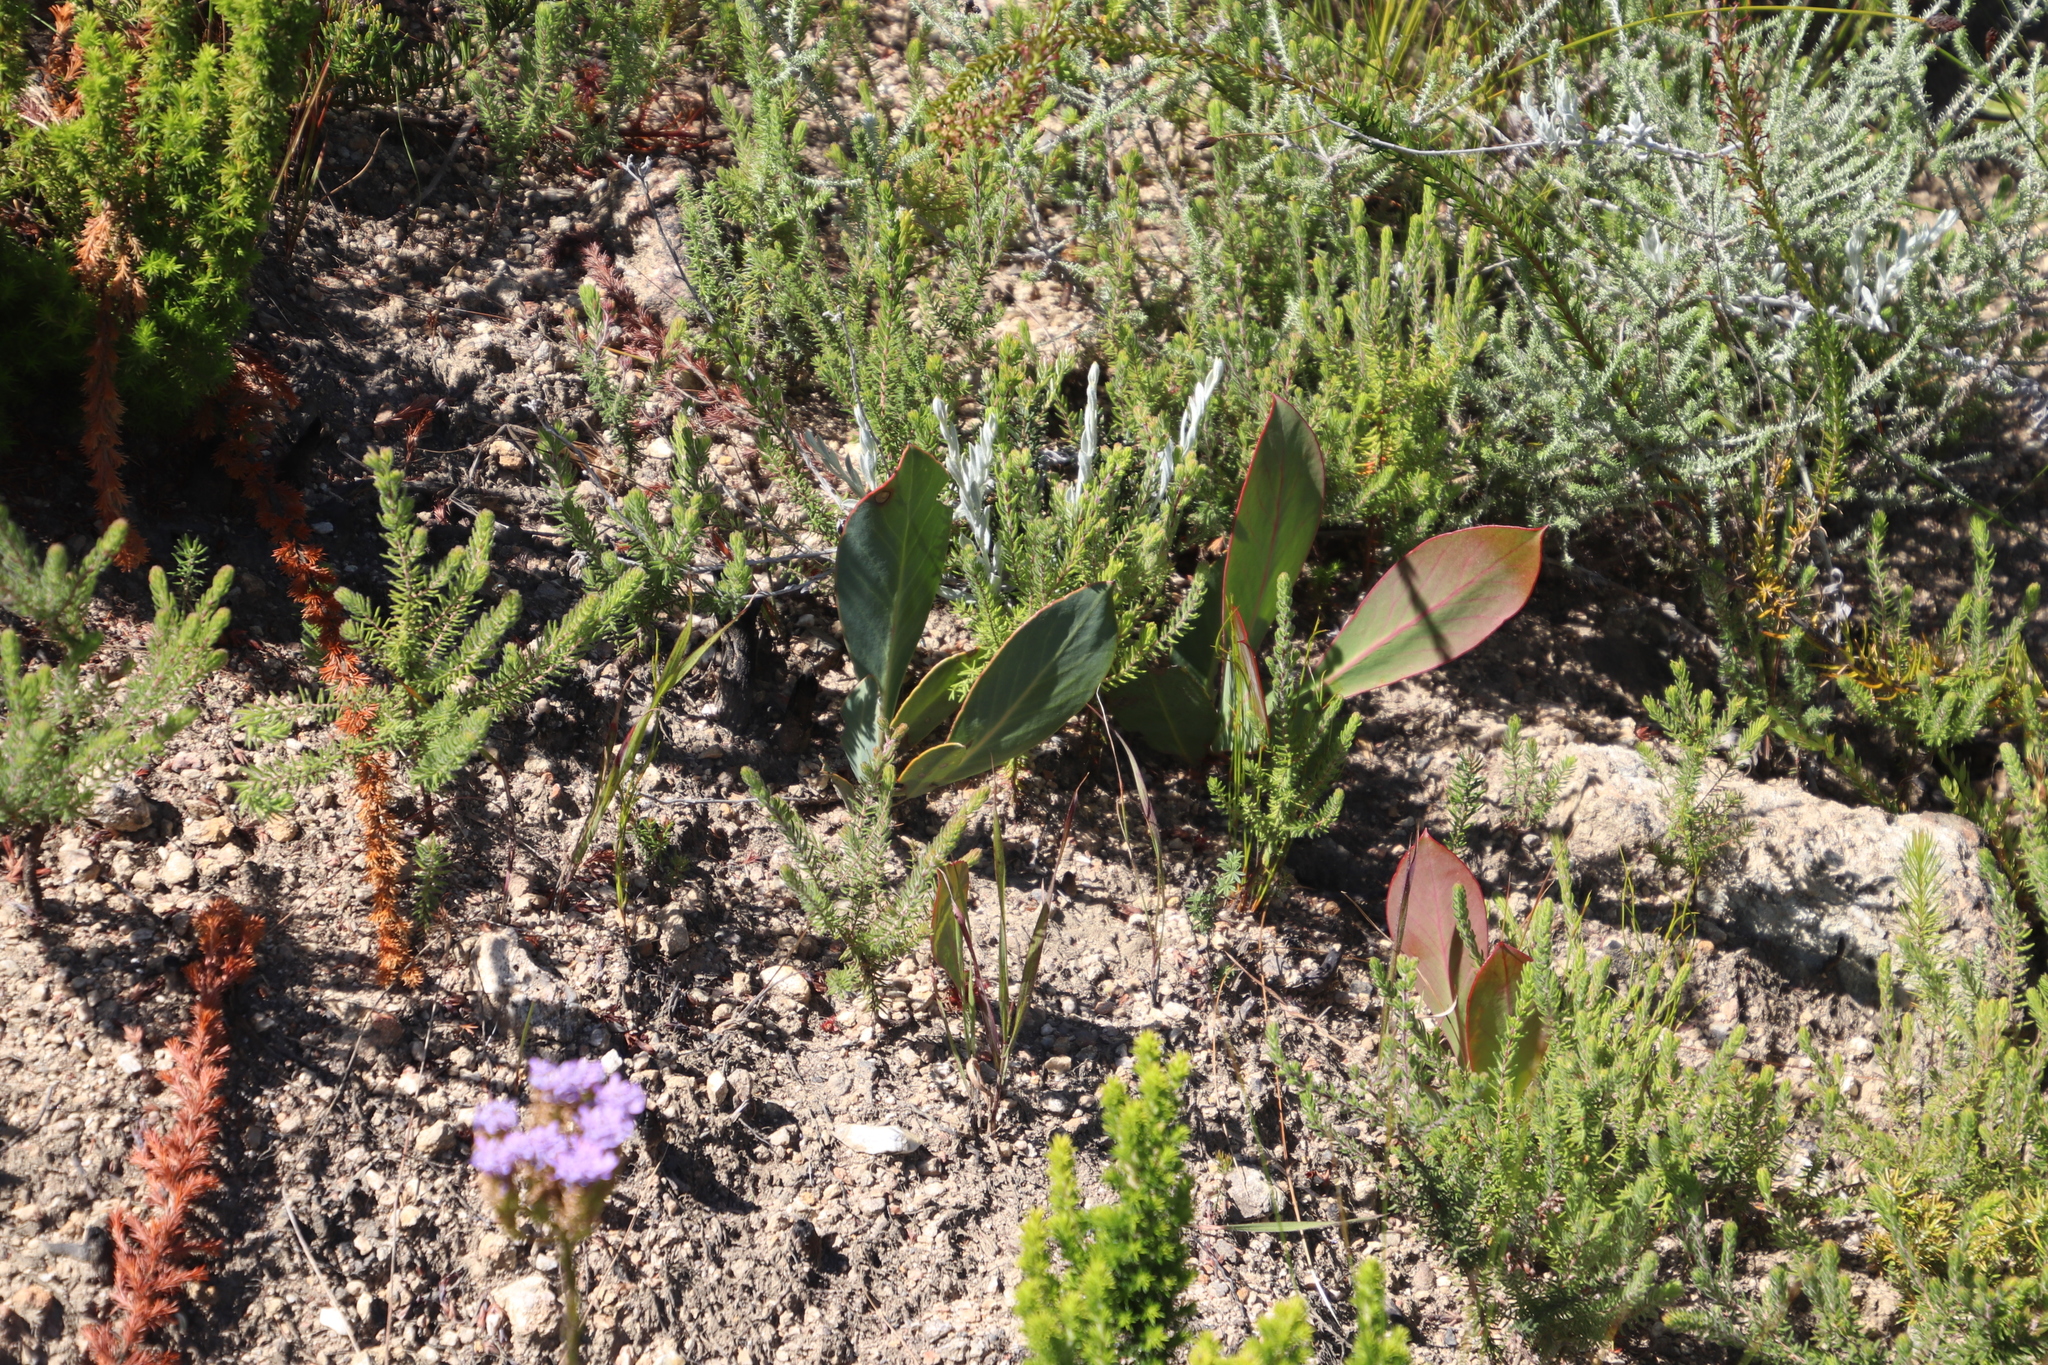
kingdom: Plantae
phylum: Tracheophyta
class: Magnoliopsida
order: Proteales
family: Proteaceae
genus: Protea
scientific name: Protea acaulos
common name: Common ground sugarbush
